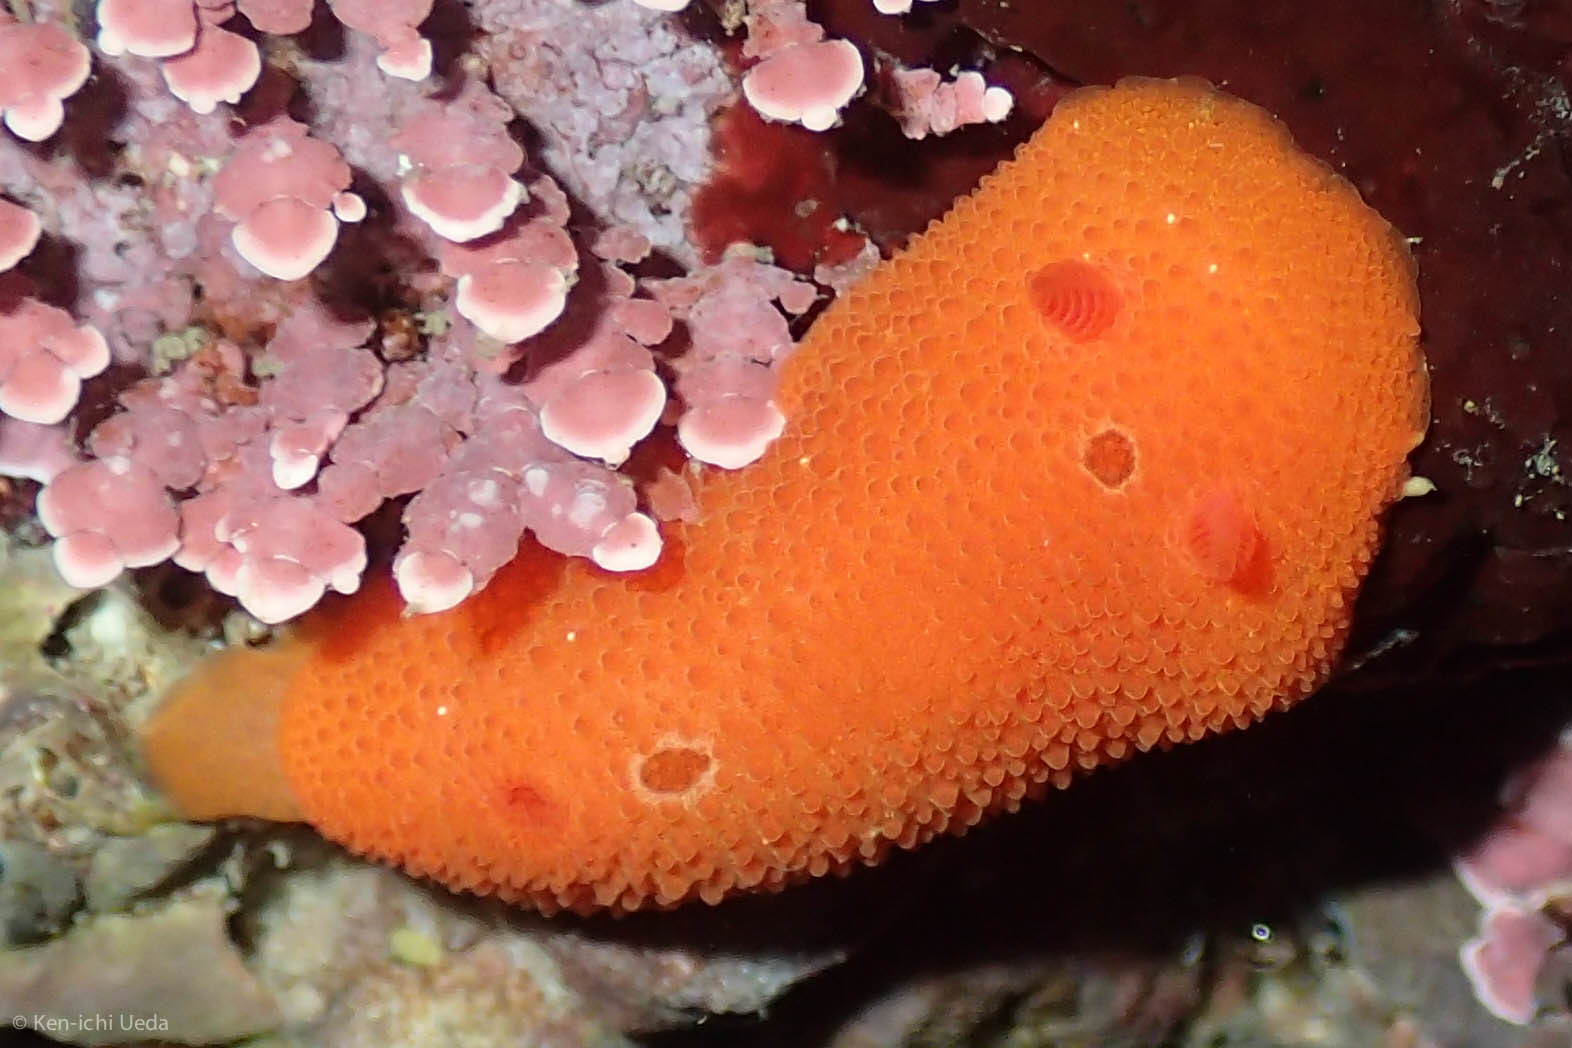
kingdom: Animalia
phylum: Mollusca
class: Gastropoda
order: Nudibranchia
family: Cadlinidae
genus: Aldisa
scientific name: Aldisa sanguinea
